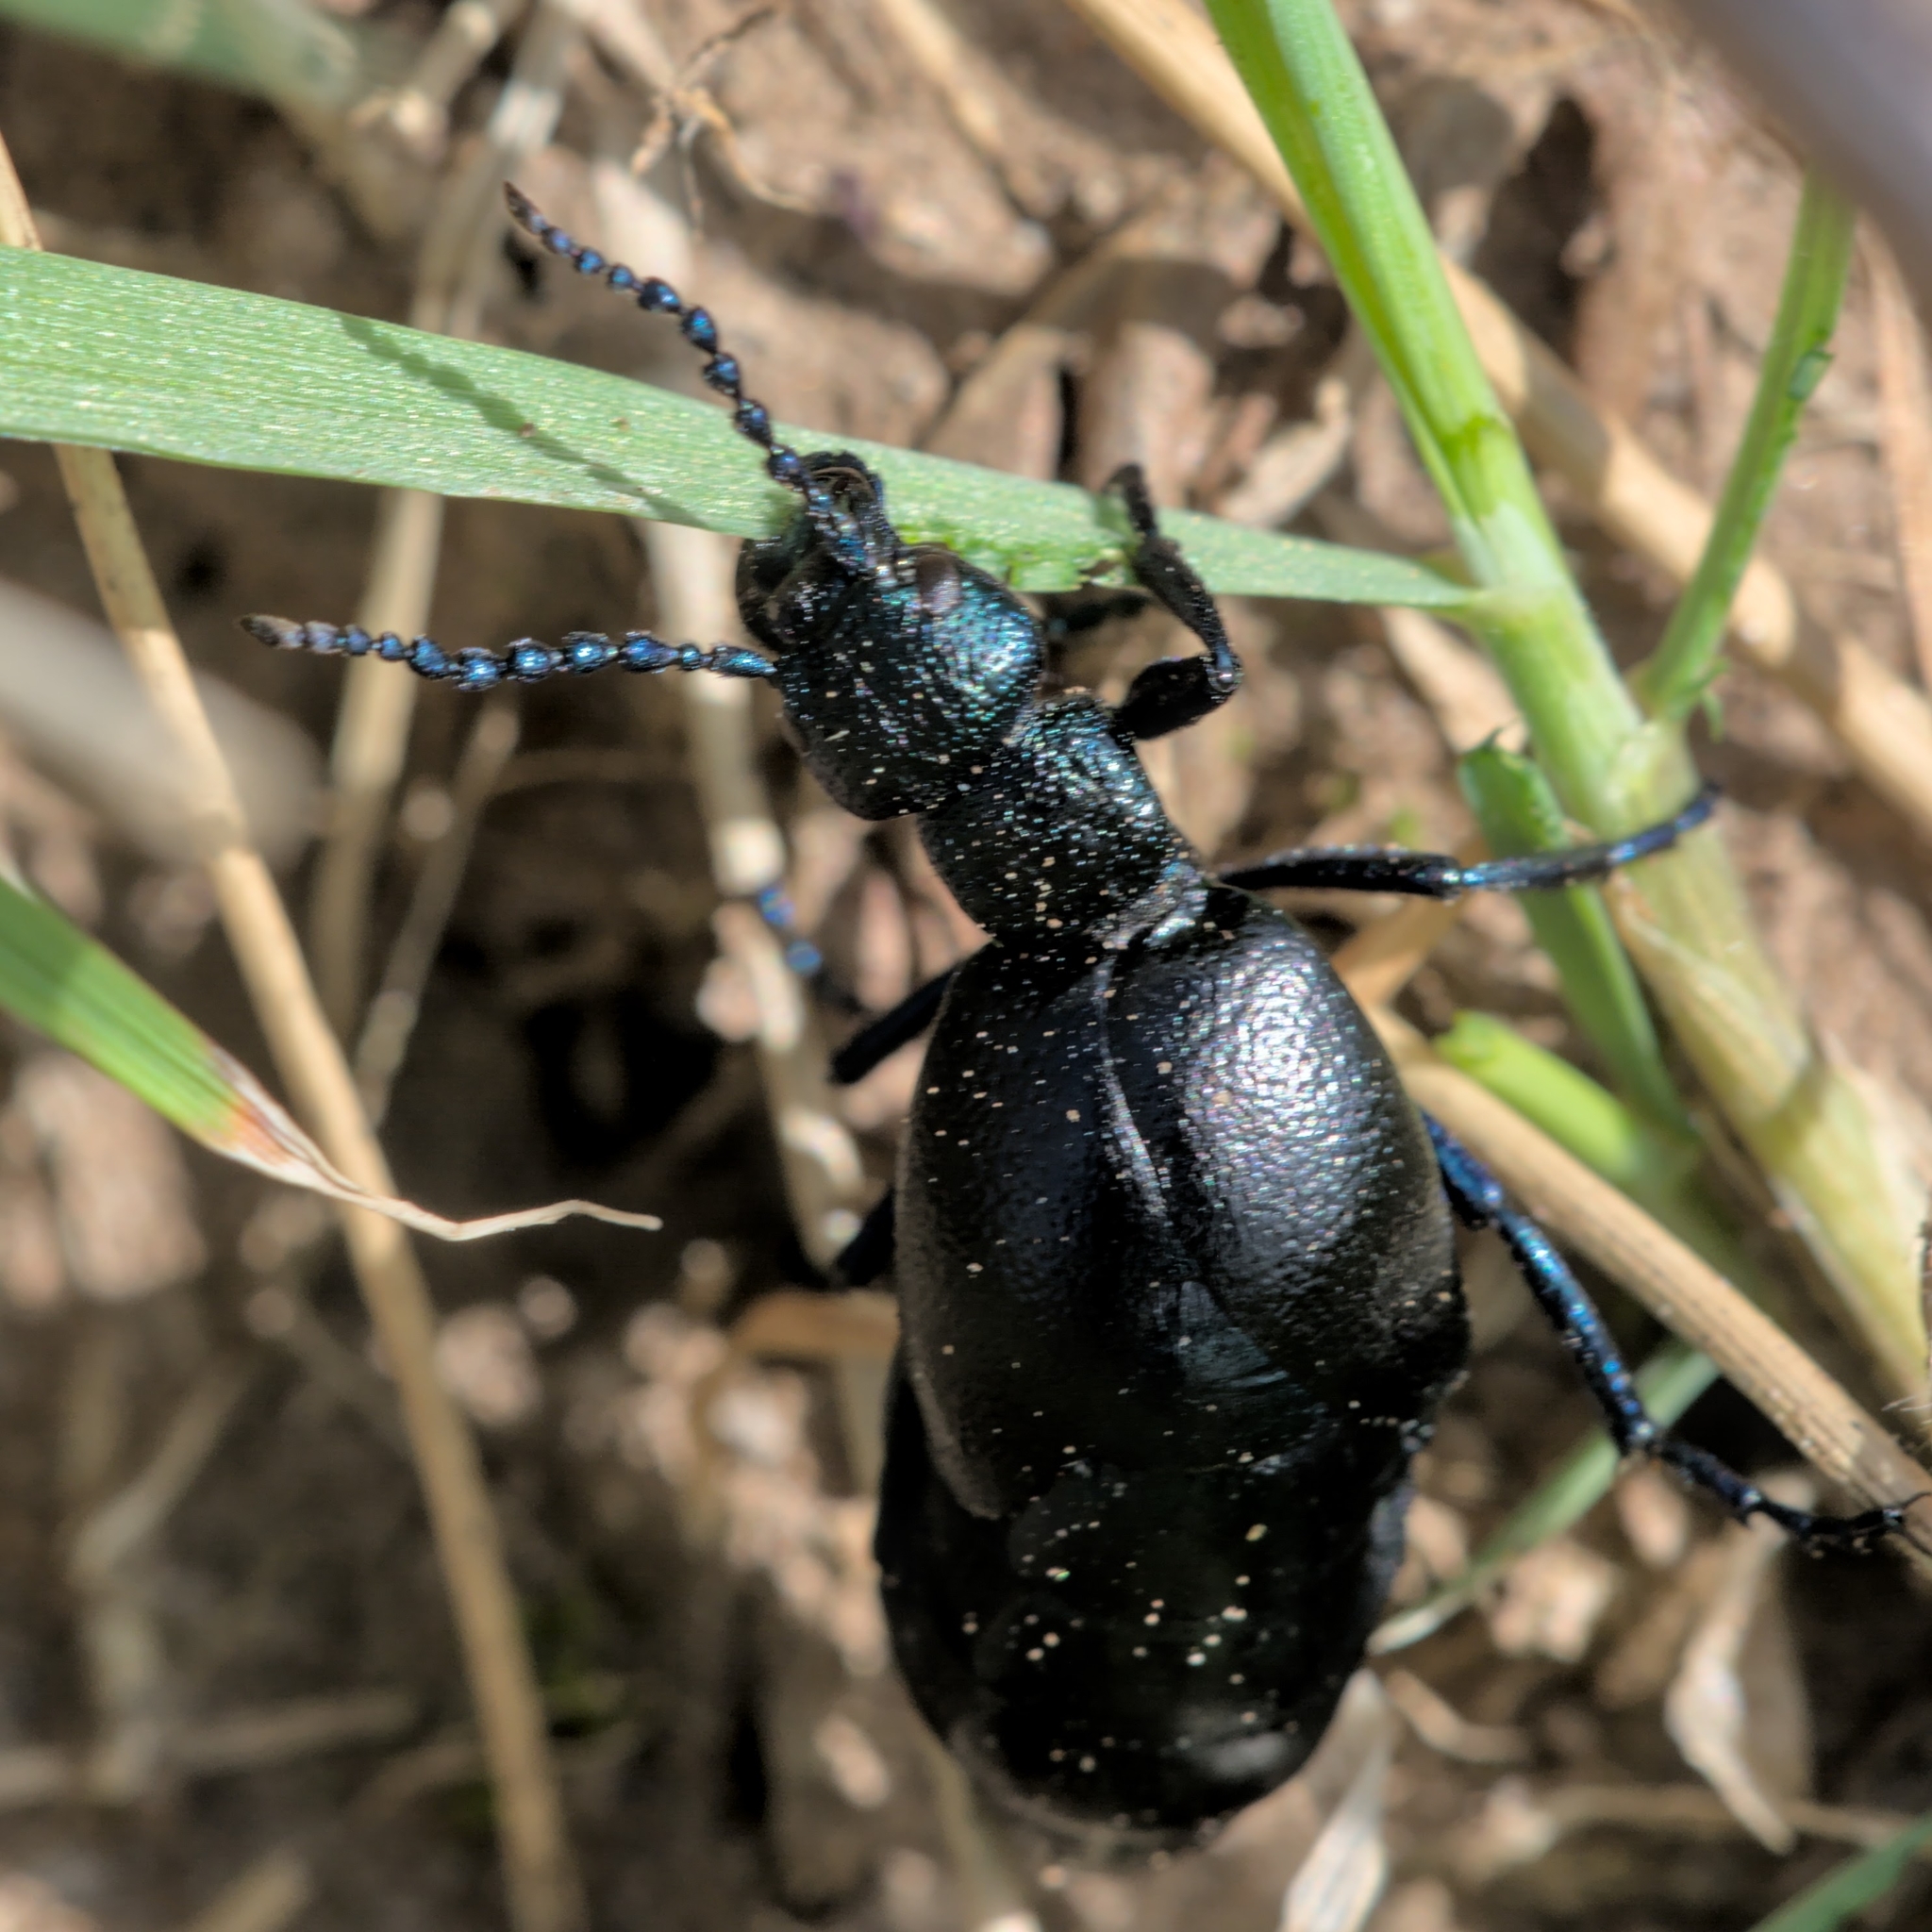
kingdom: Animalia
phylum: Arthropoda
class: Insecta
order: Coleoptera
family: Meloidae
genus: Meloe
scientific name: Meloe proscarabaeus
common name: Black oil-beetle
